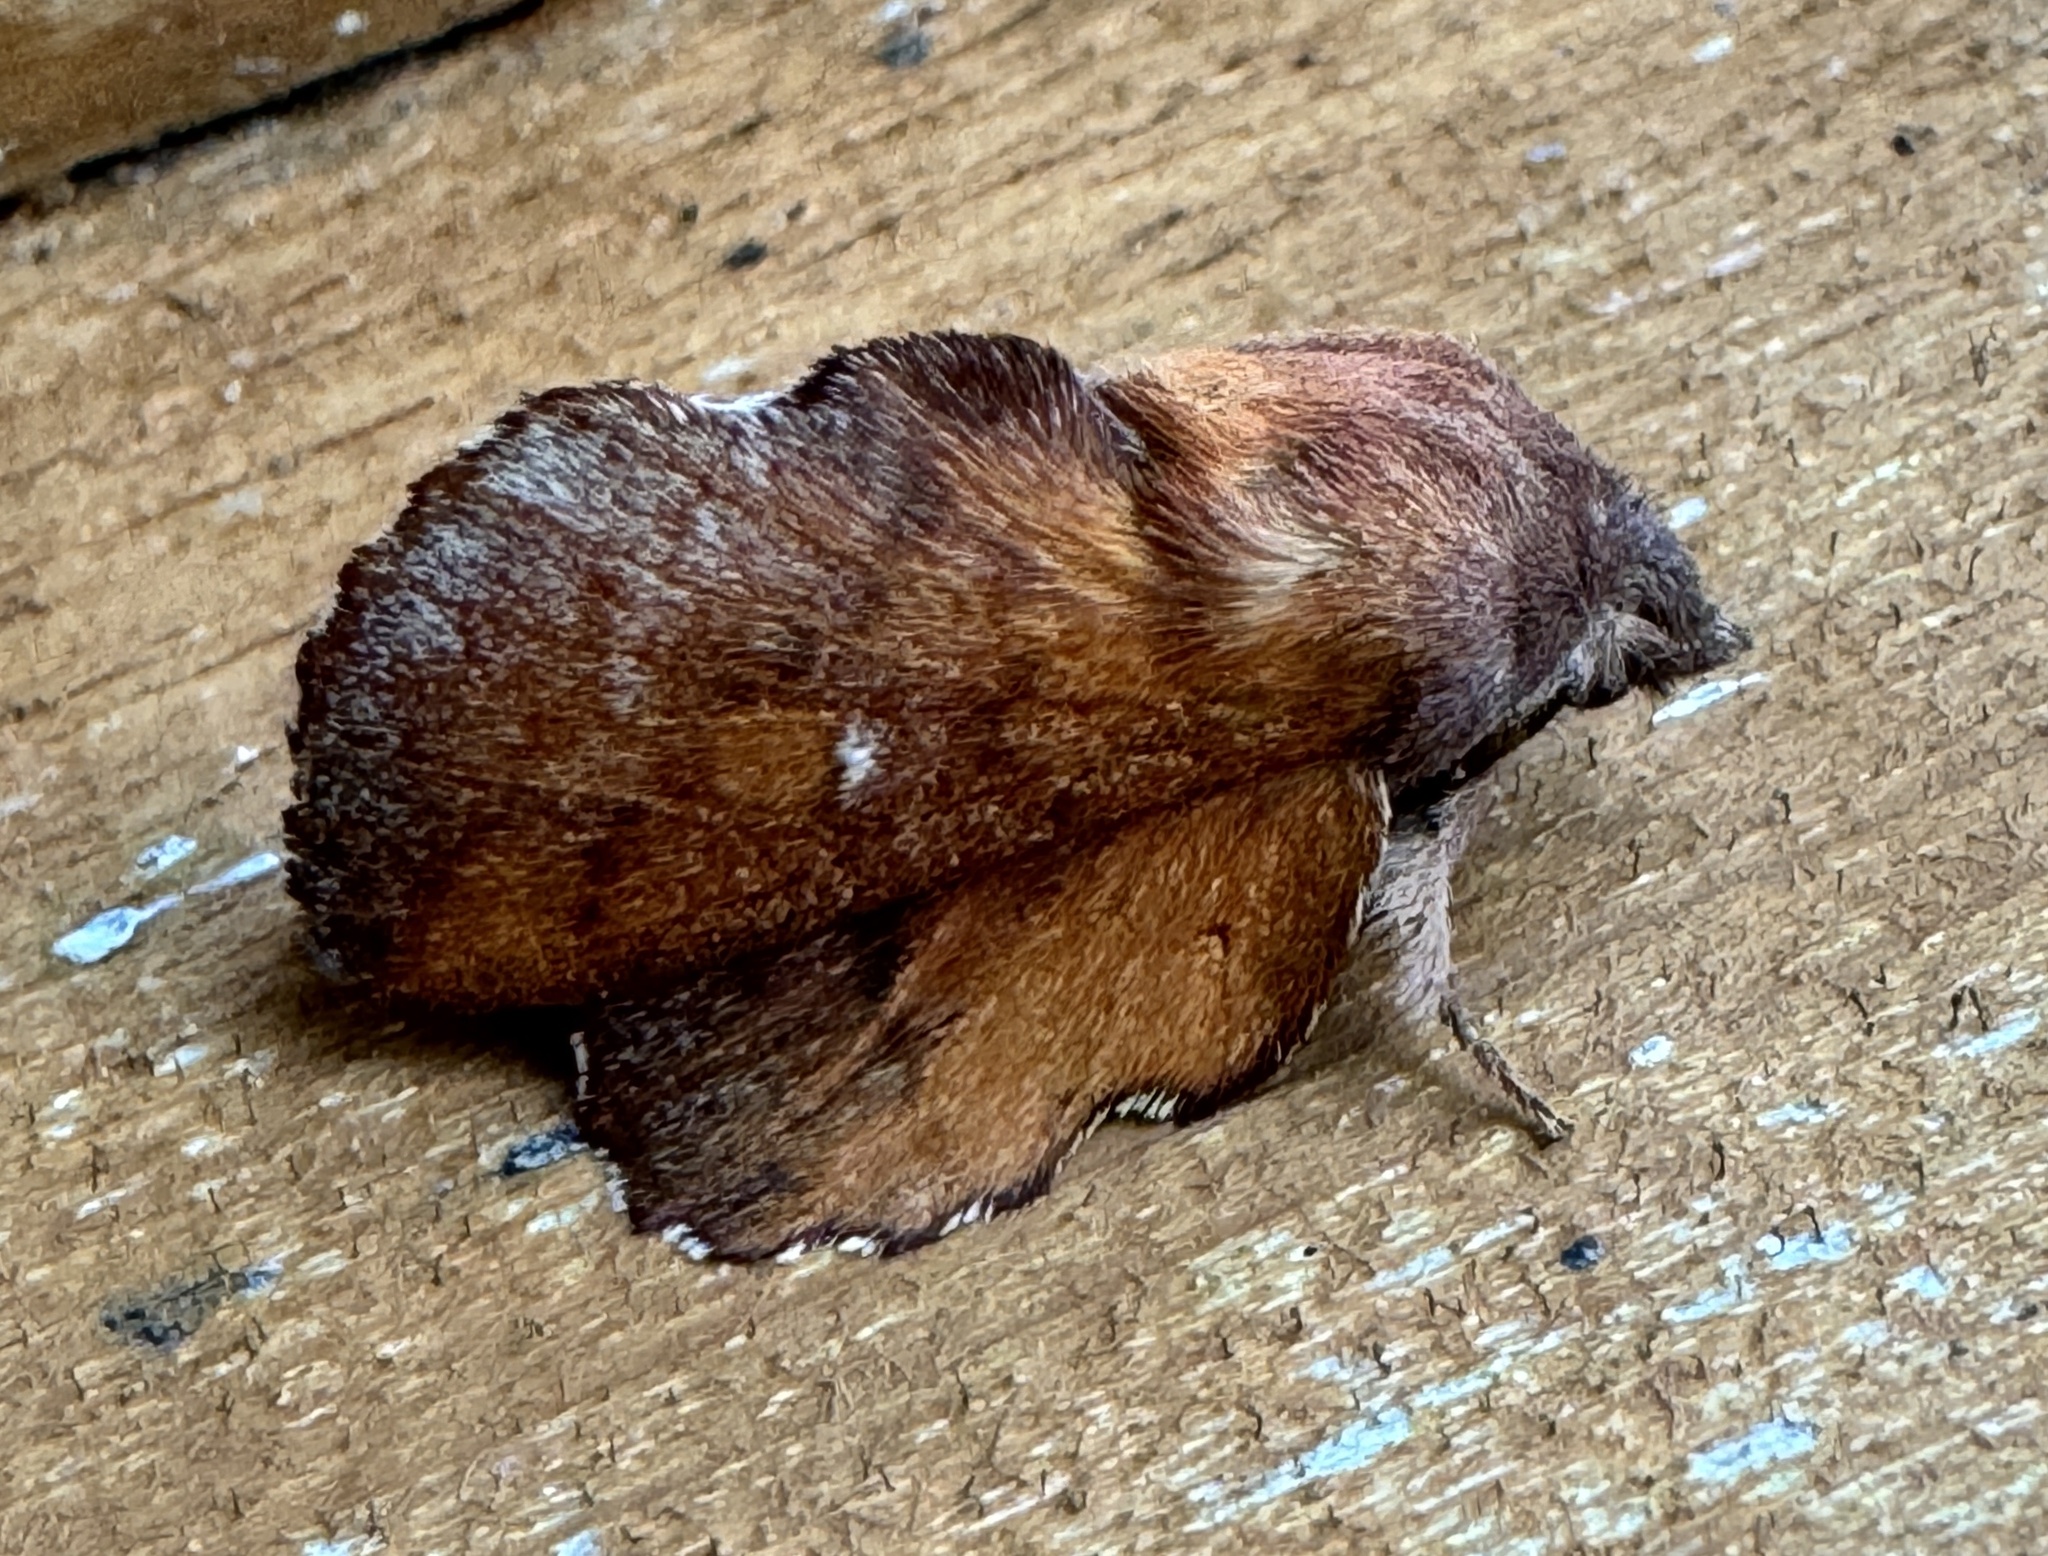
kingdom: Animalia
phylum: Arthropoda
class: Insecta
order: Lepidoptera
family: Lasiocampidae
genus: Phyllodesma
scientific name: Phyllodesma americana
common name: American lappet moth
